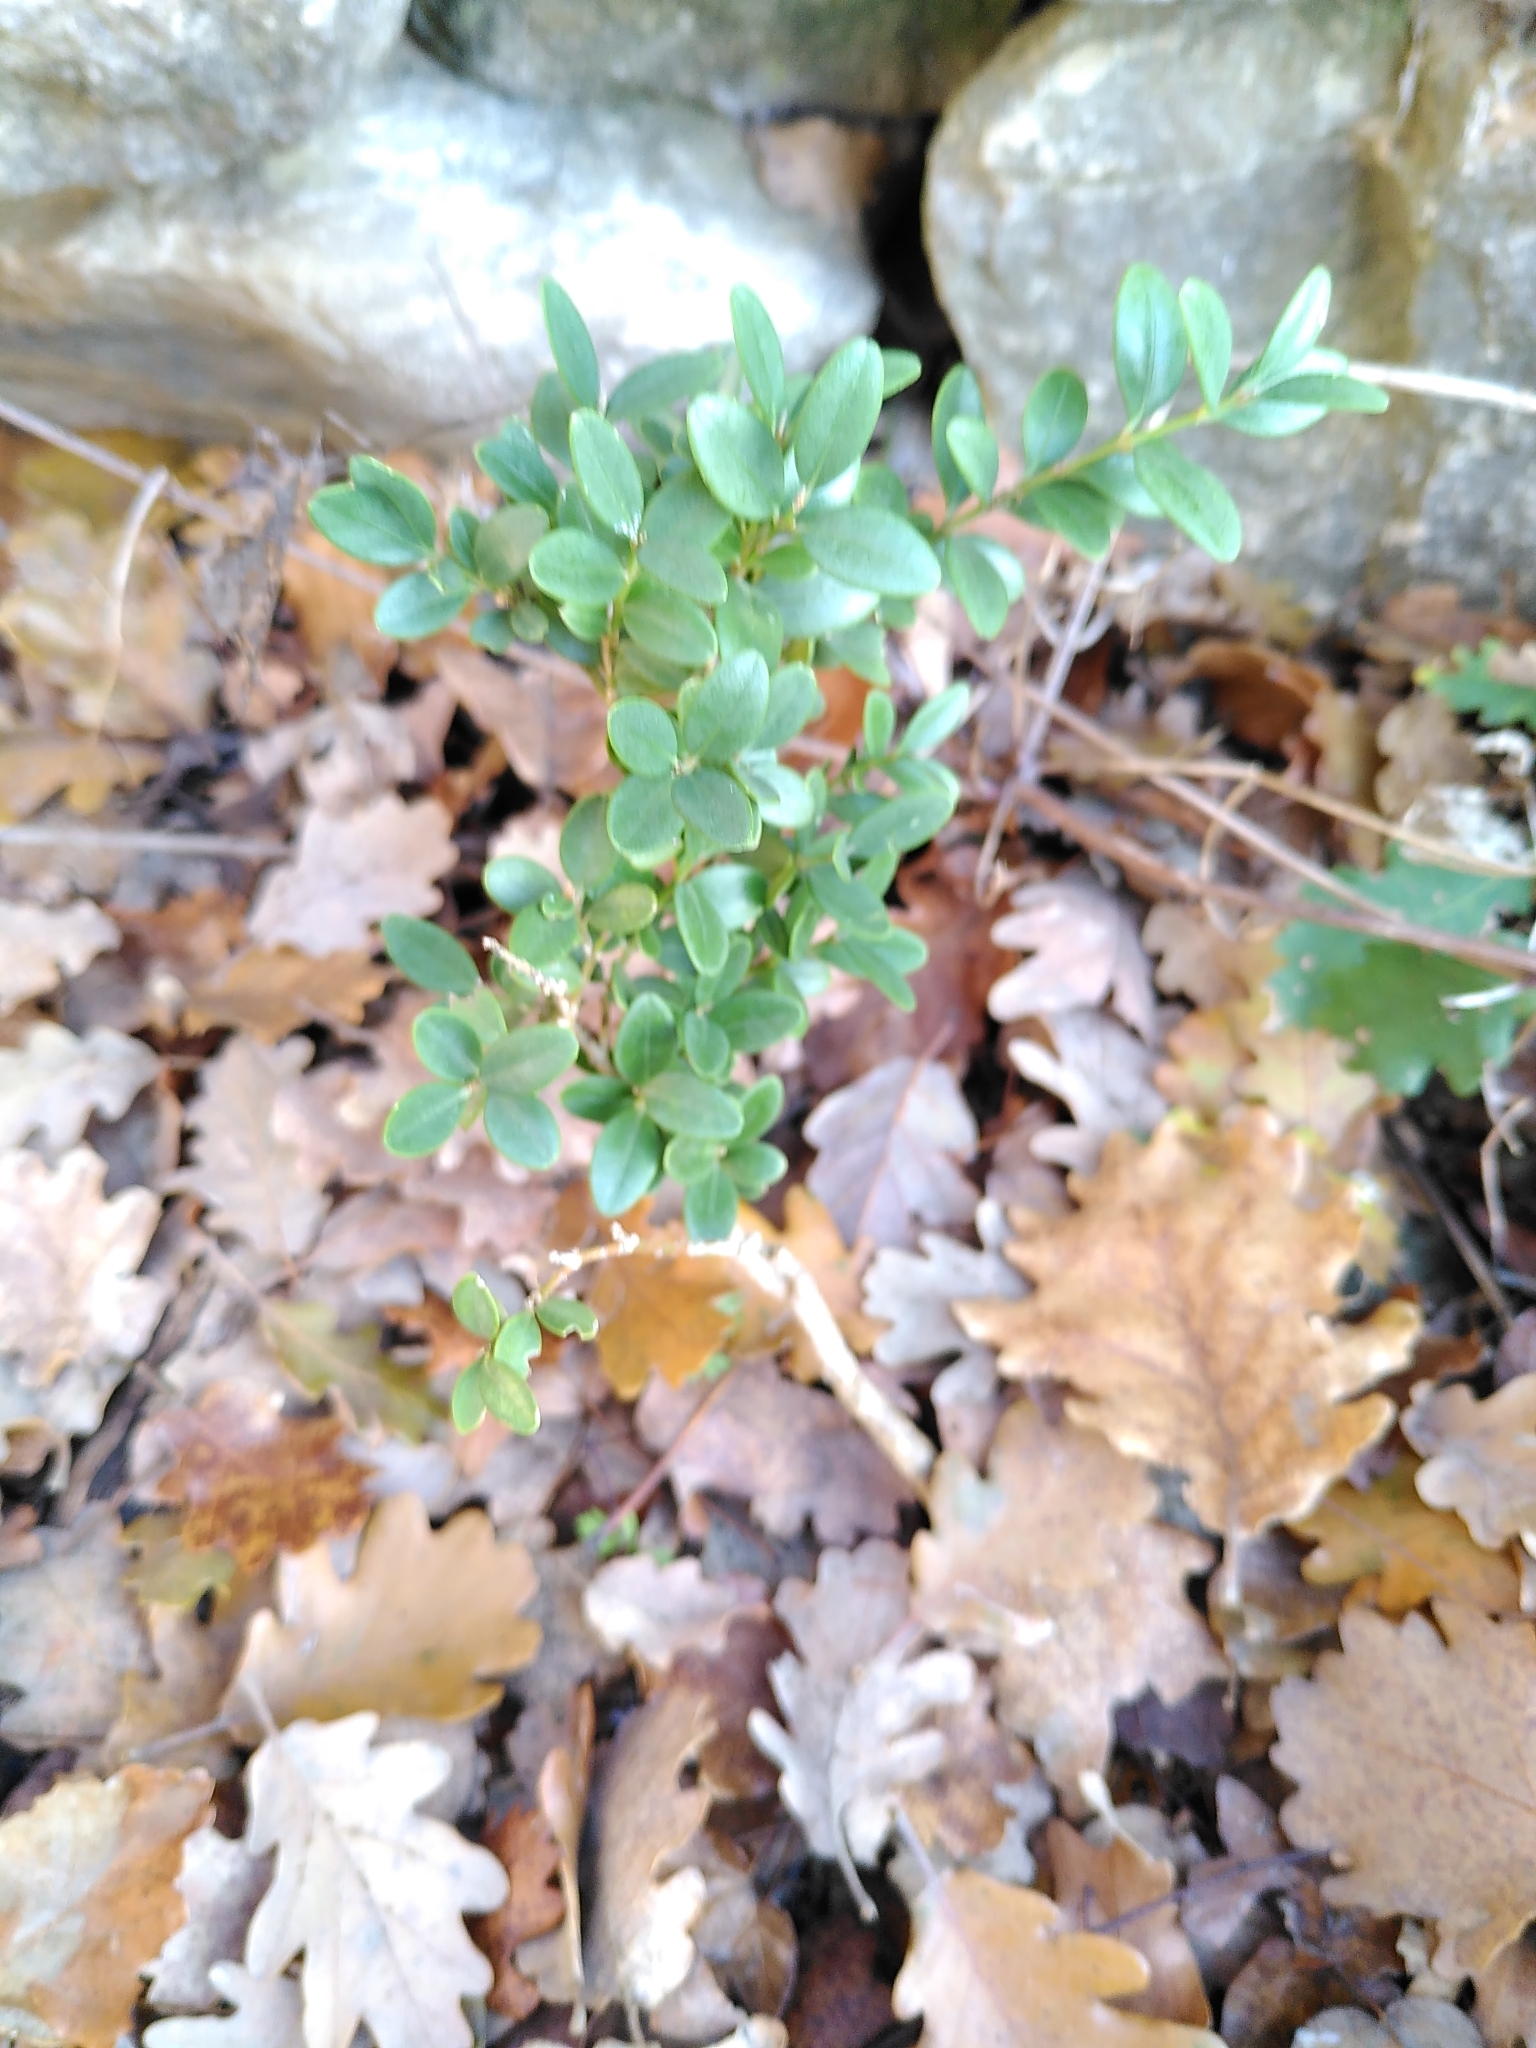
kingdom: Plantae
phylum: Tracheophyta
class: Magnoliopsida
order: Buxales
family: Buxaceae
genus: Buxus
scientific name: Buxus sempervirens
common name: Box
